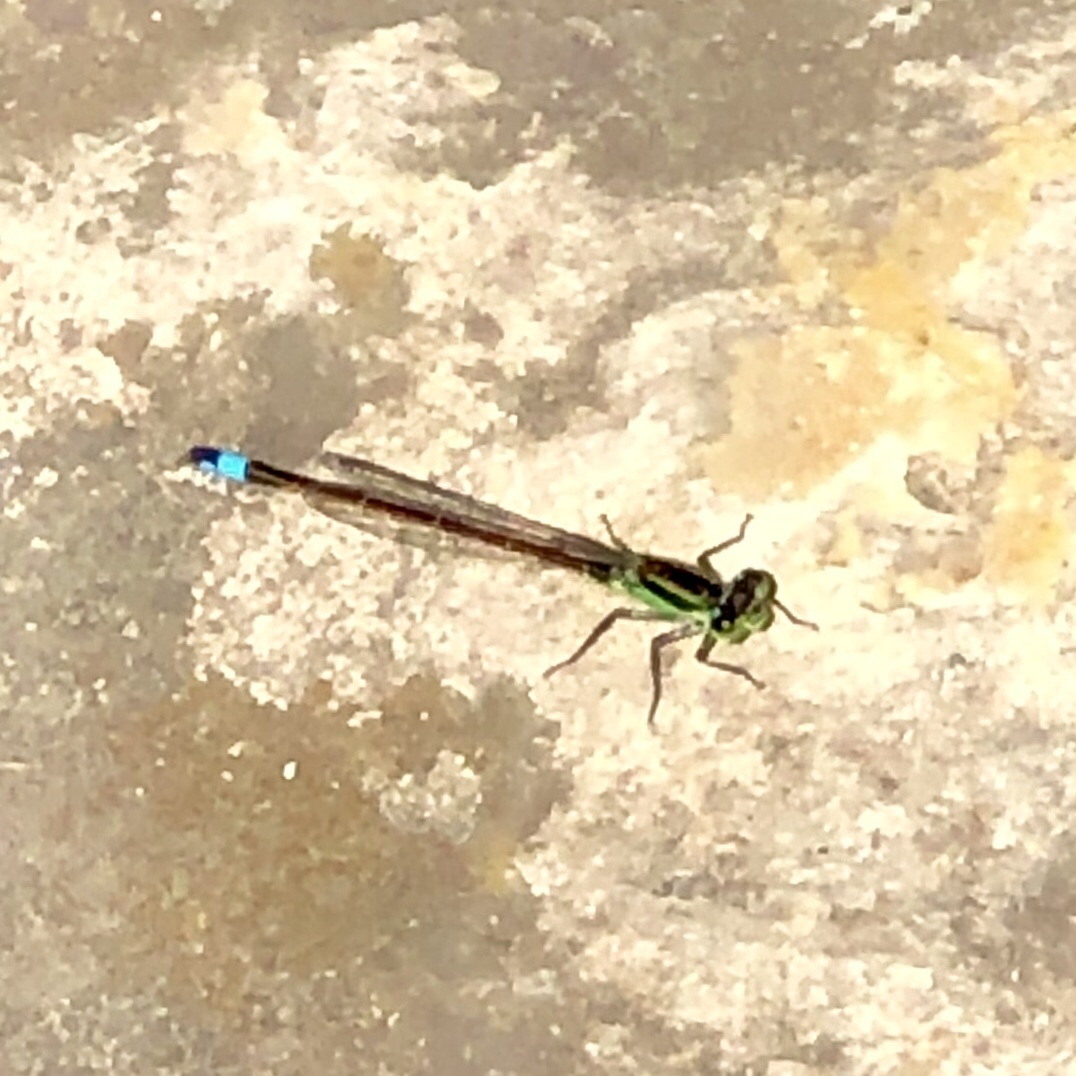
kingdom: Animalia
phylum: Arthropoda
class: Insecta
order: Odonata
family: Coenagrionidae
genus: Ischnura
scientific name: Ischnura ramburii
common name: Rambur's forktail
